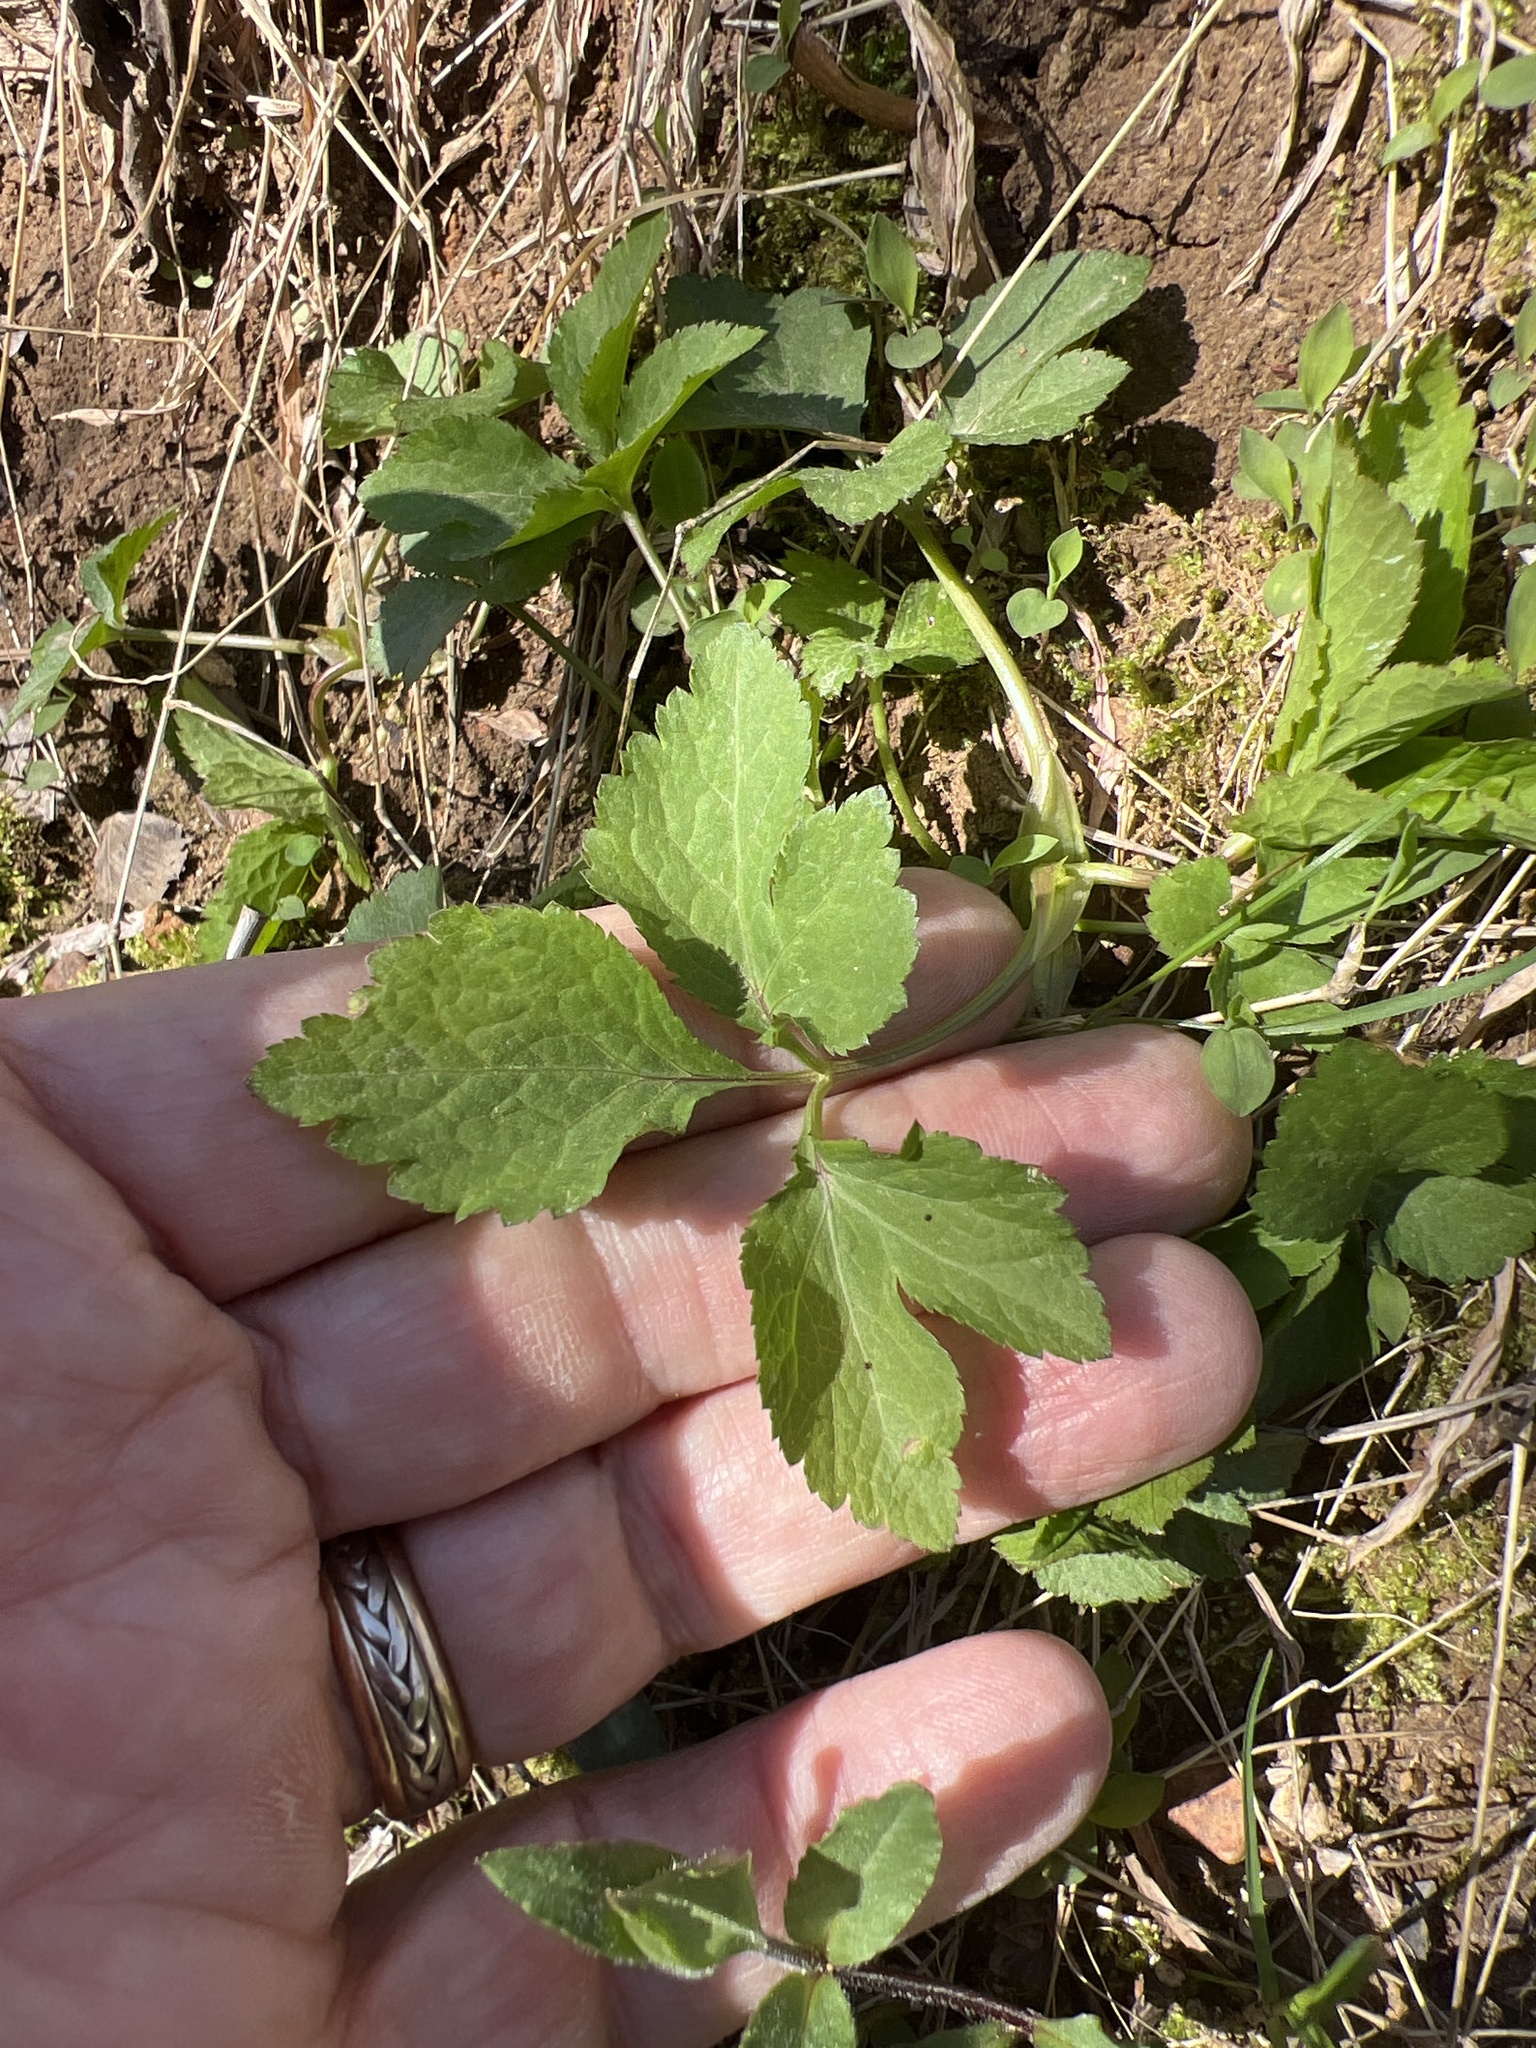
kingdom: Plantae
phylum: Tracheophyta
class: Magnoliopsida
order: Apiales
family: Apiaceae
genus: Cryptotaenia
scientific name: Cryptotaenia canadensis
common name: Honewort
